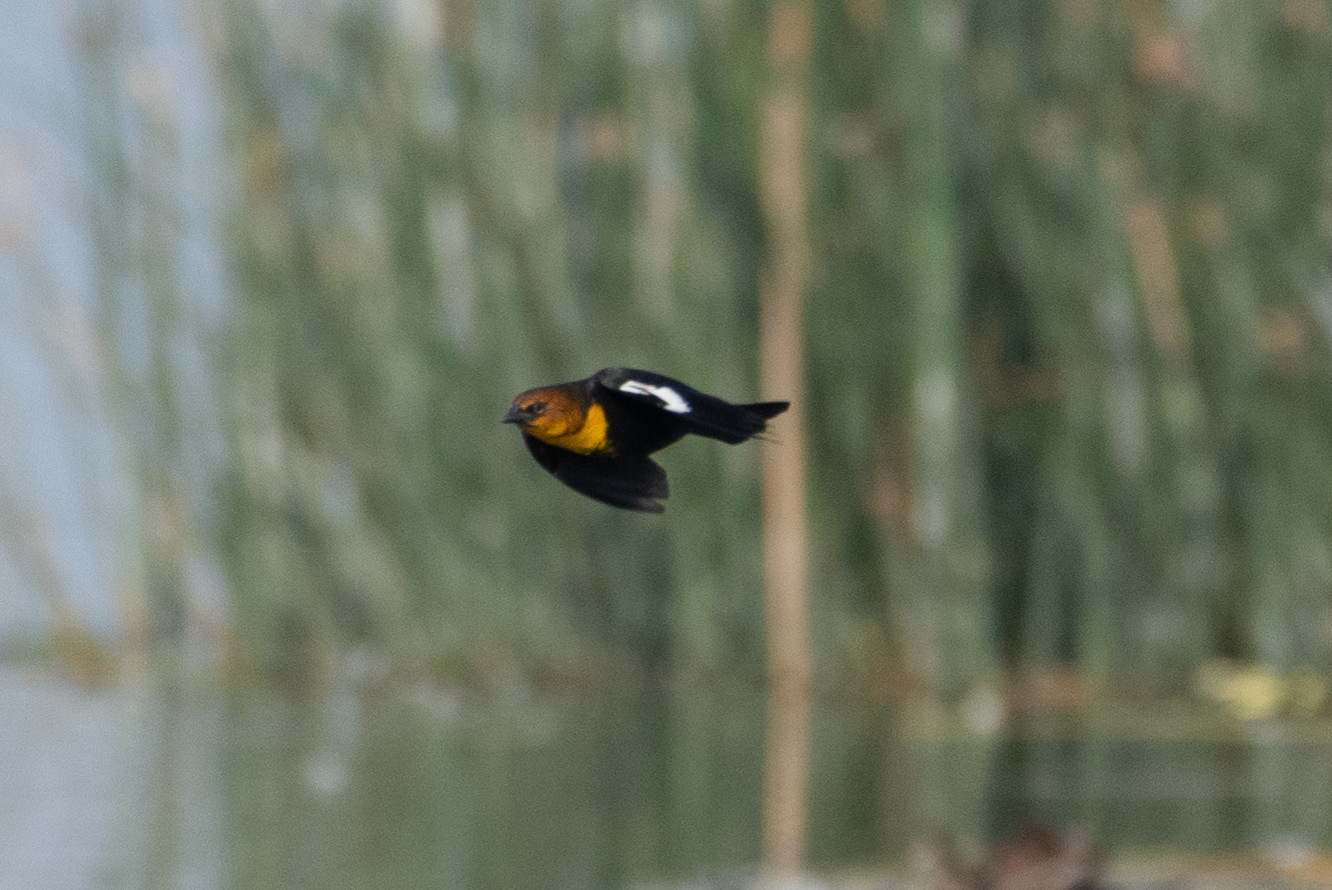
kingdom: Animalia
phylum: Chordata
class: Aves
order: Passeriformes
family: Icteridae
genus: Xanthocephalus
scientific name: Xanthocephalus xanthocephalus
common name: Yellow-headed blackbird
